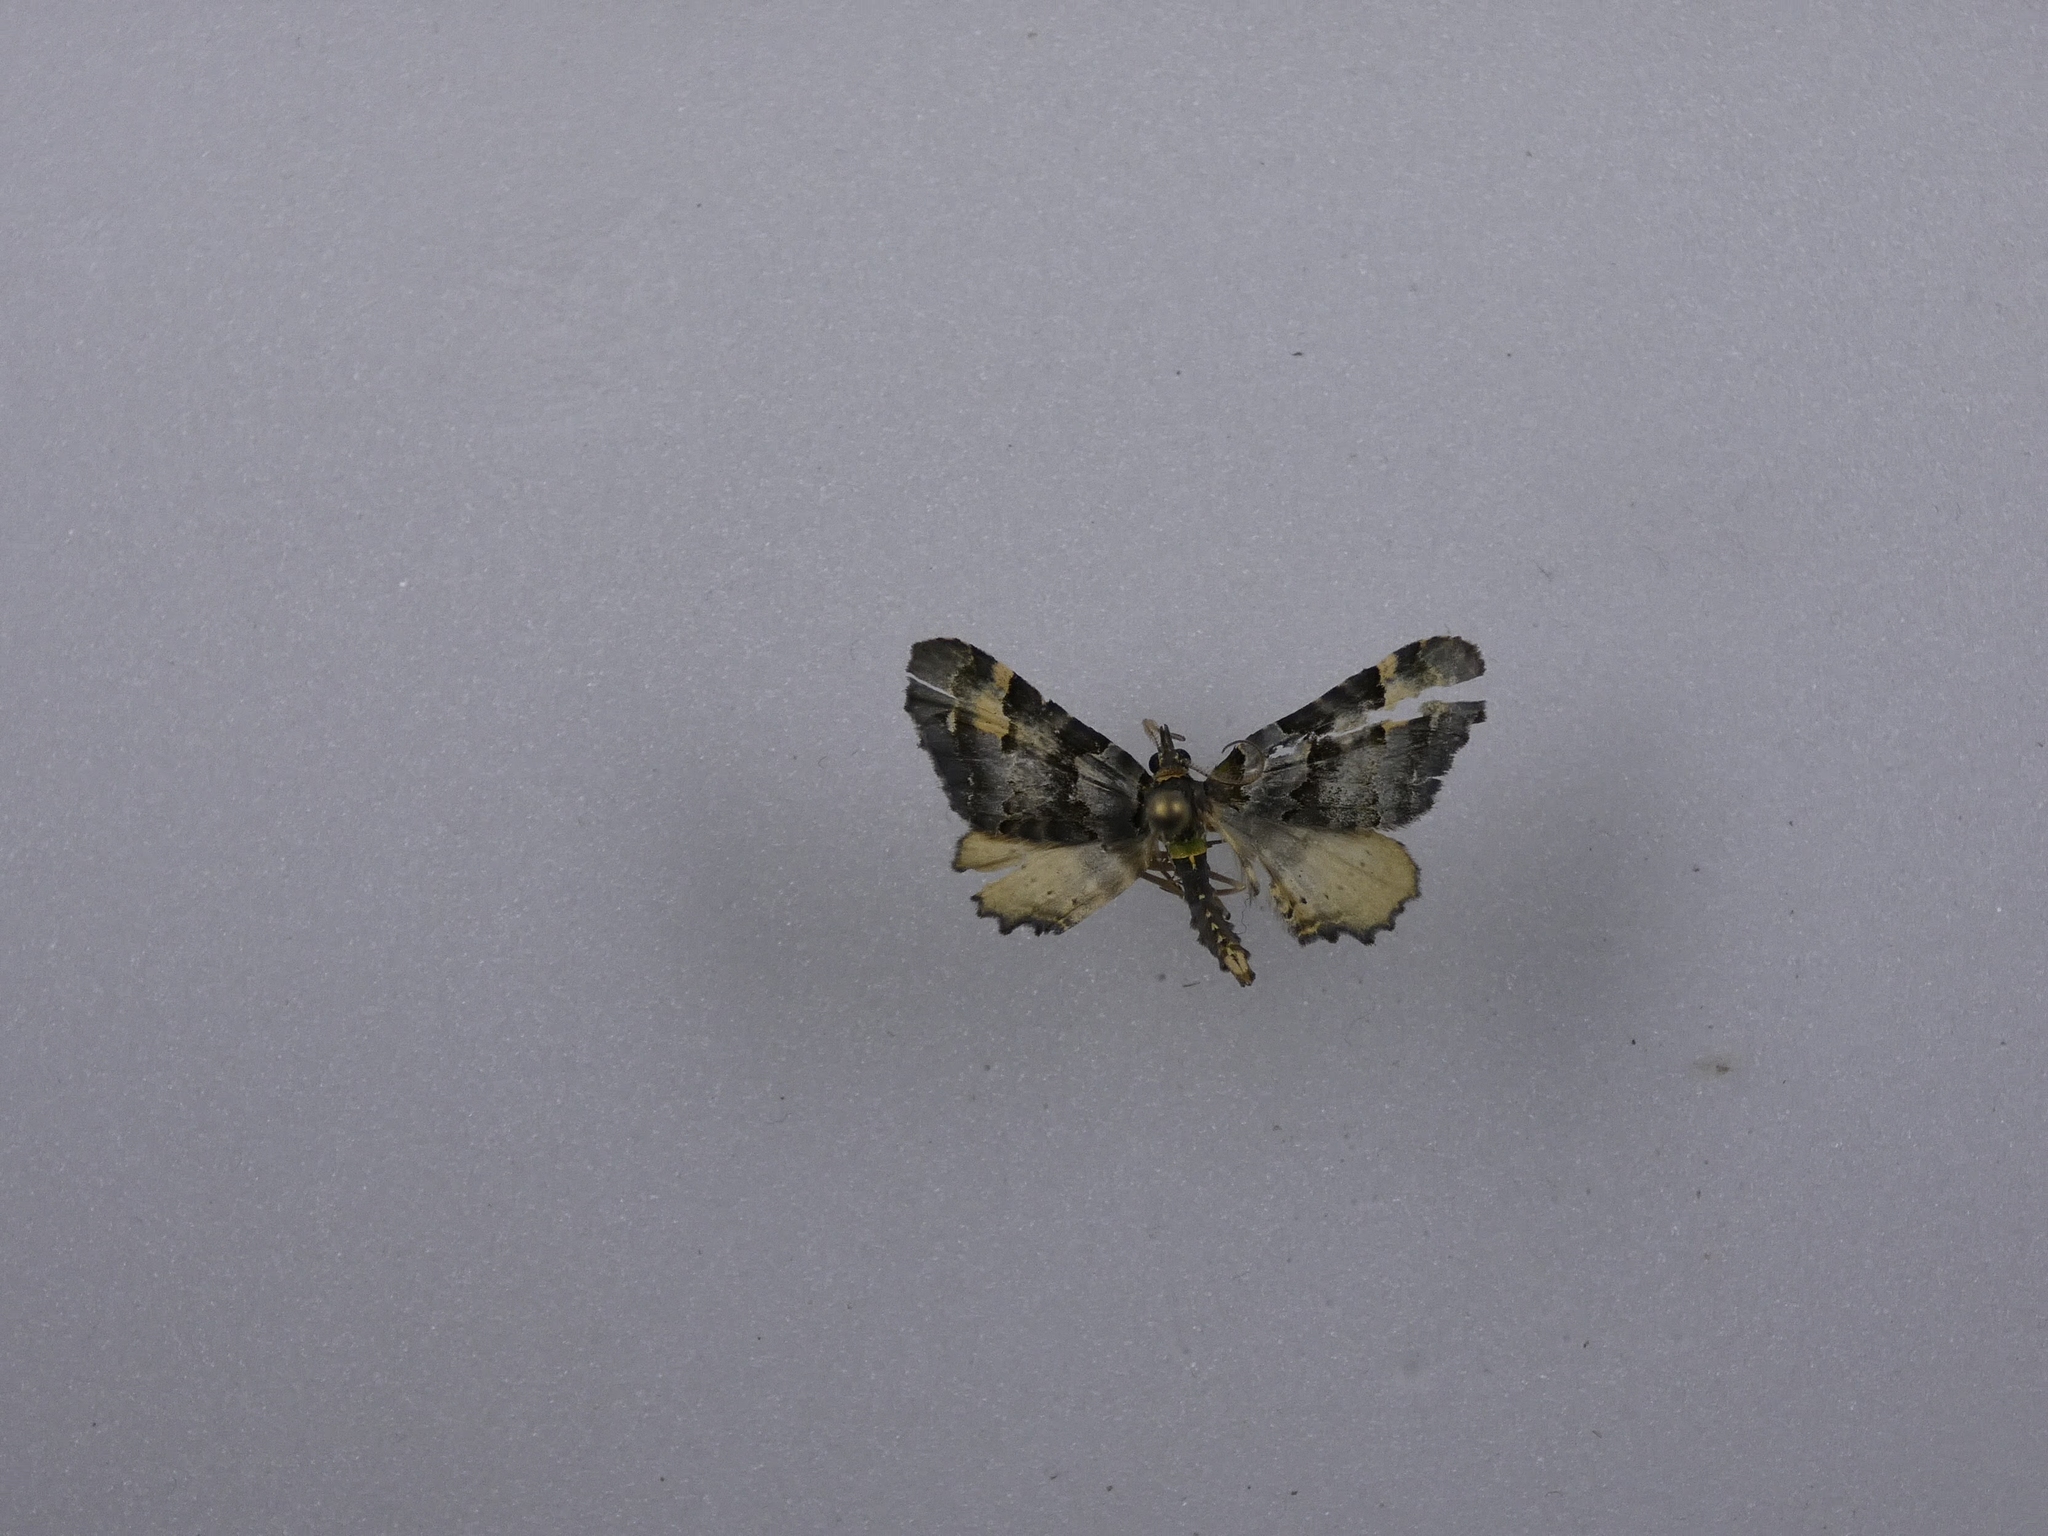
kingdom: Animalia
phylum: Arthropoda
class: Insecta
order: Lepidoptera
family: Geometridae
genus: Elvia
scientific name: Elvia glaucata
